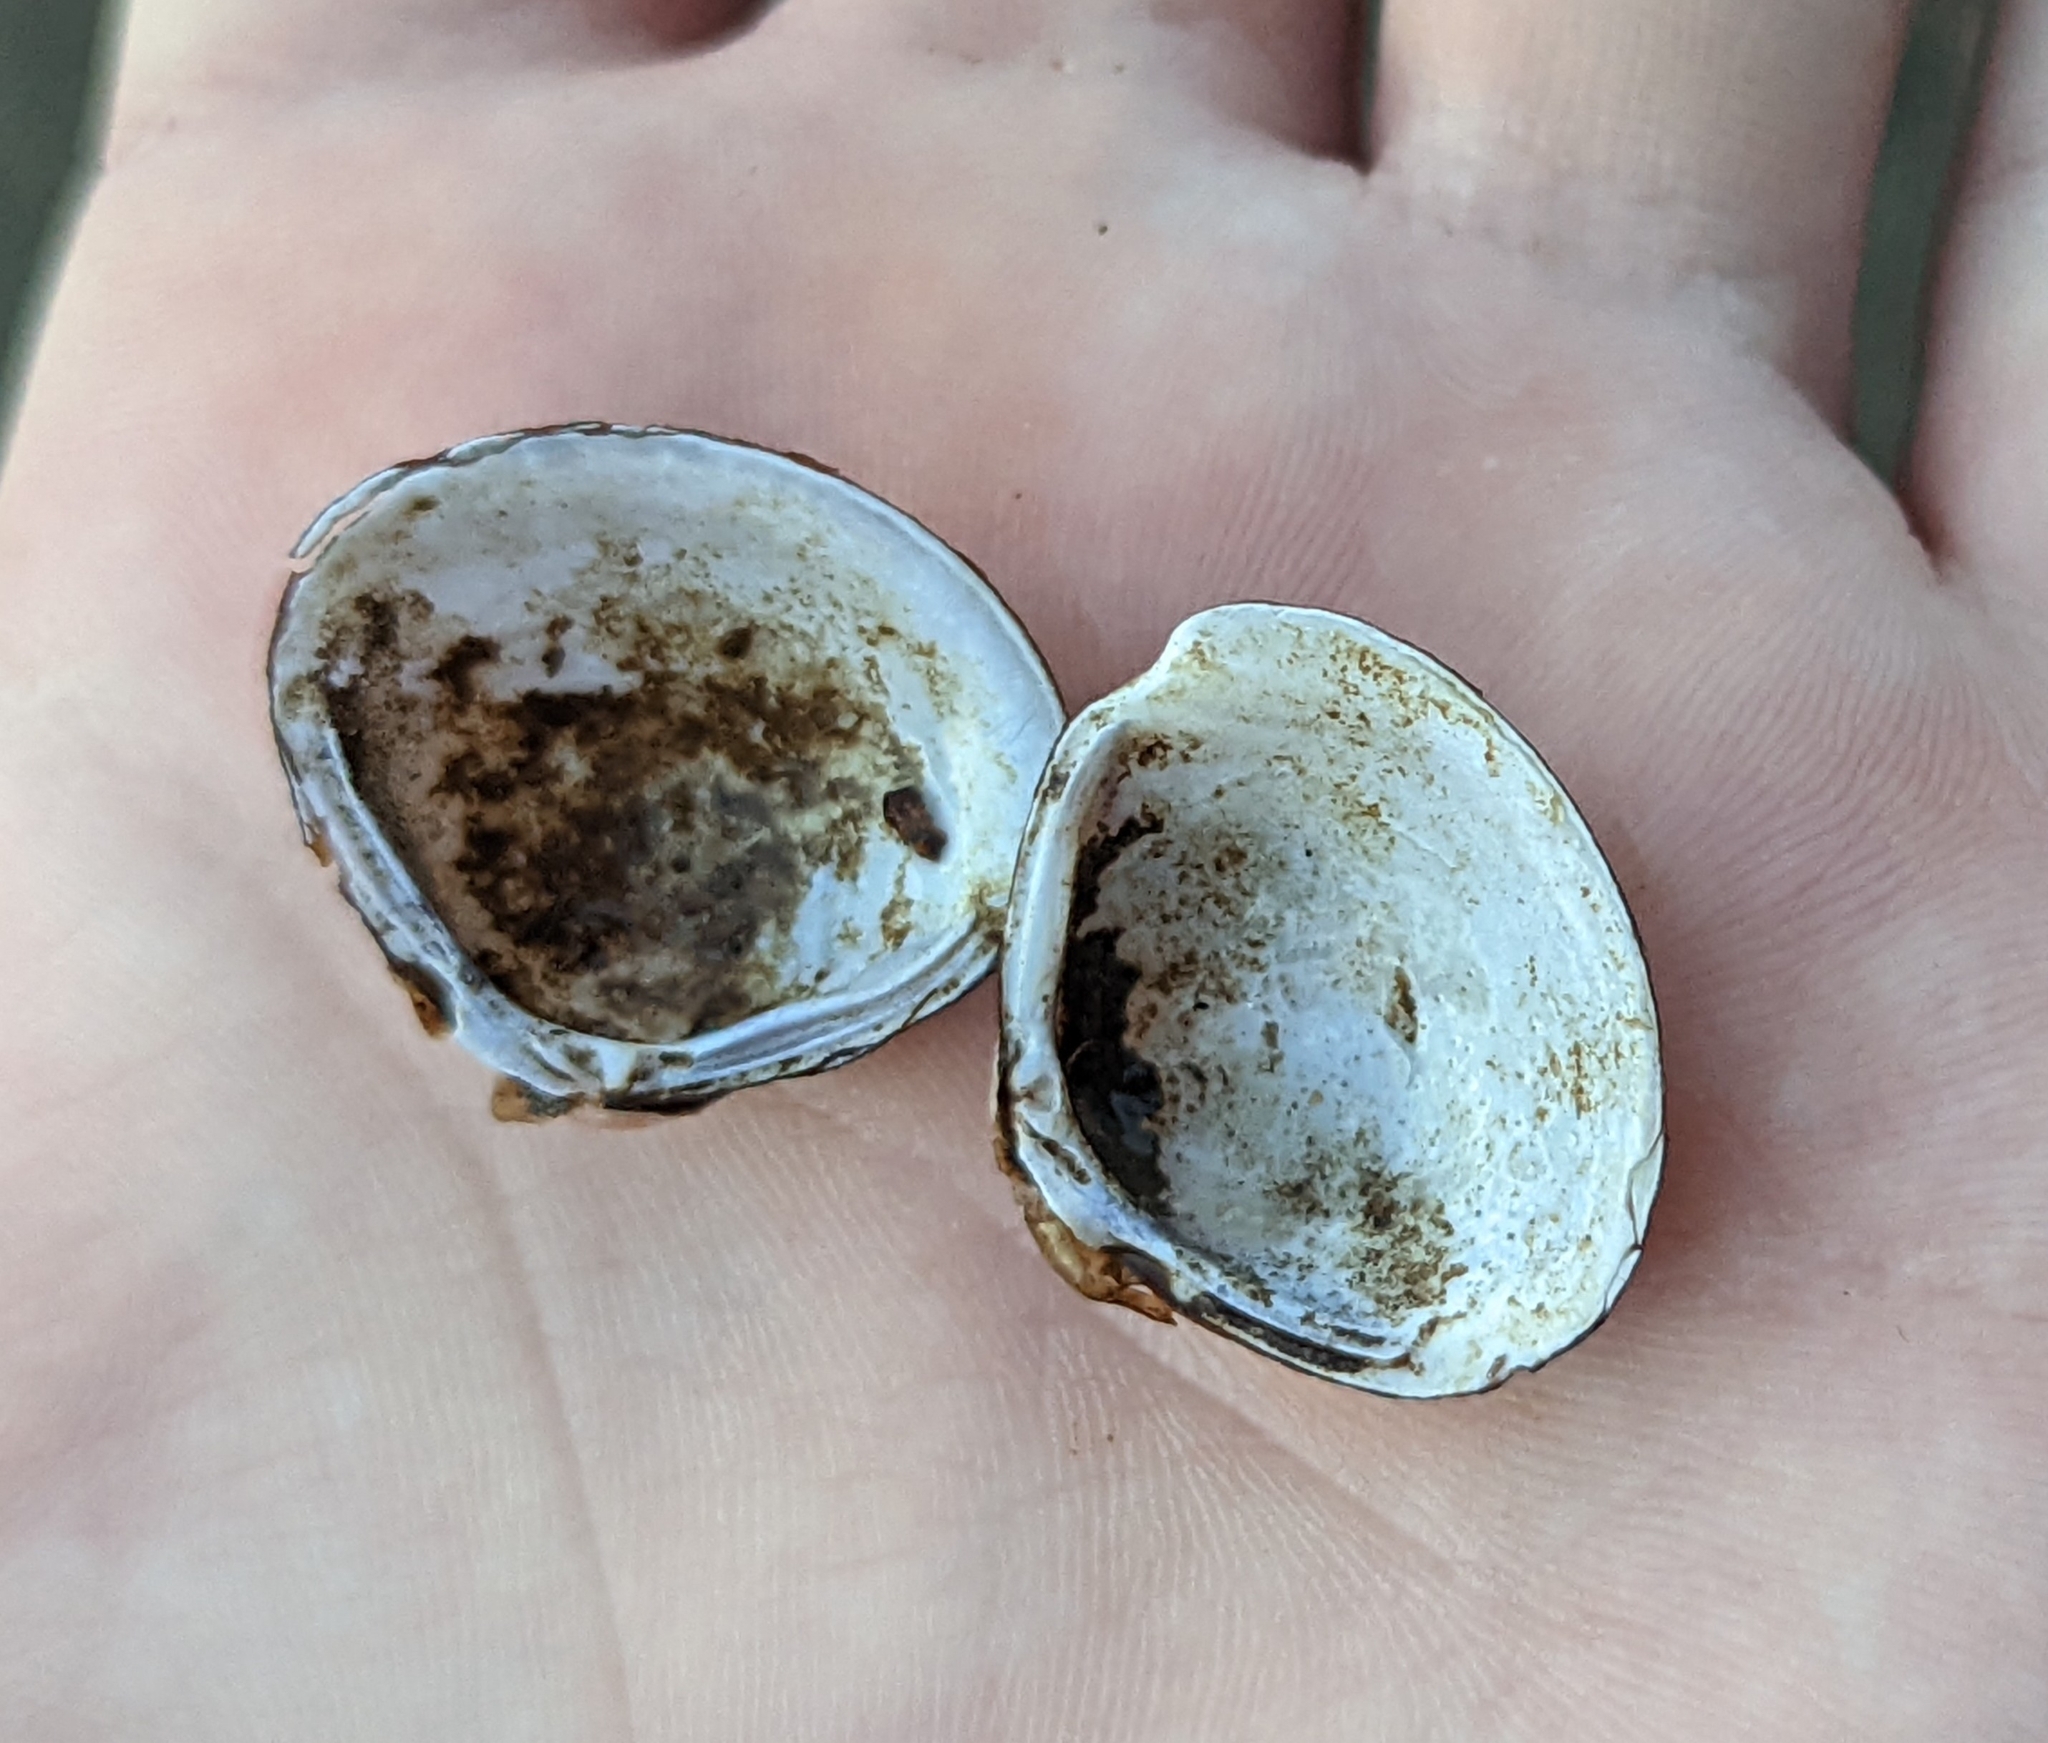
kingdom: Animalia
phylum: Mollusca
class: Bivalvia
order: Venerida
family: Cyrenidae
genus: Corbicula
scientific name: Corbicula fluminea
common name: Asian clam
